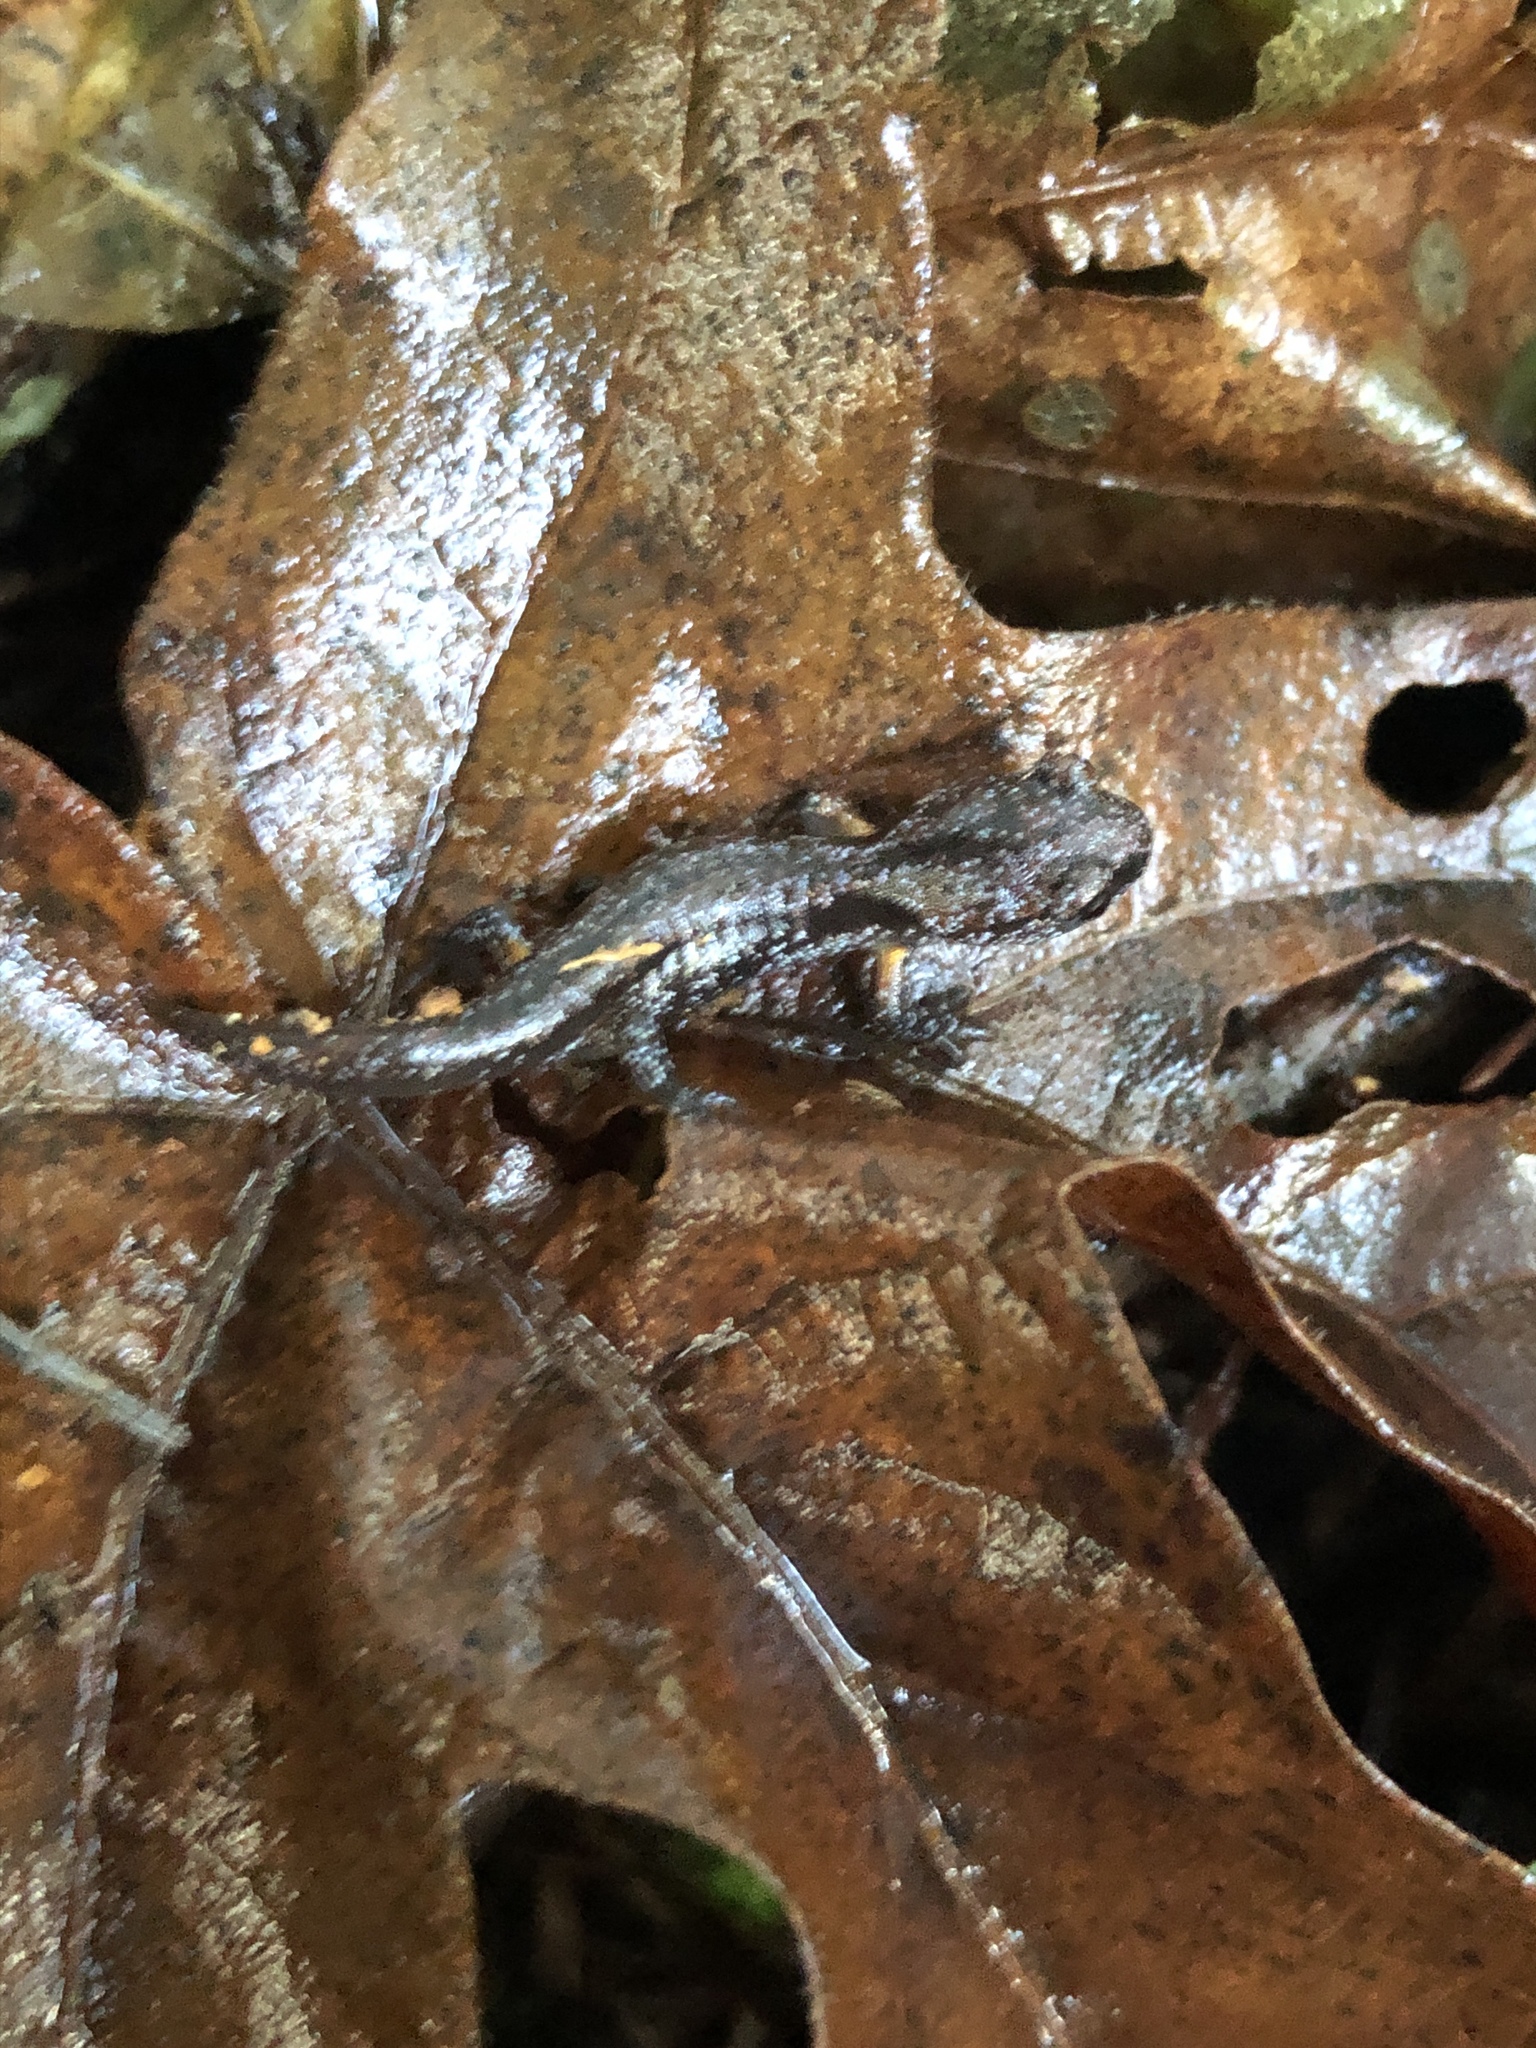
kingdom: Animalia
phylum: Chordata
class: Amphibia
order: Caudata
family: Plethodontidae
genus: Ensatina
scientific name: Ensatina eschscholtzii
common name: Ensatina
